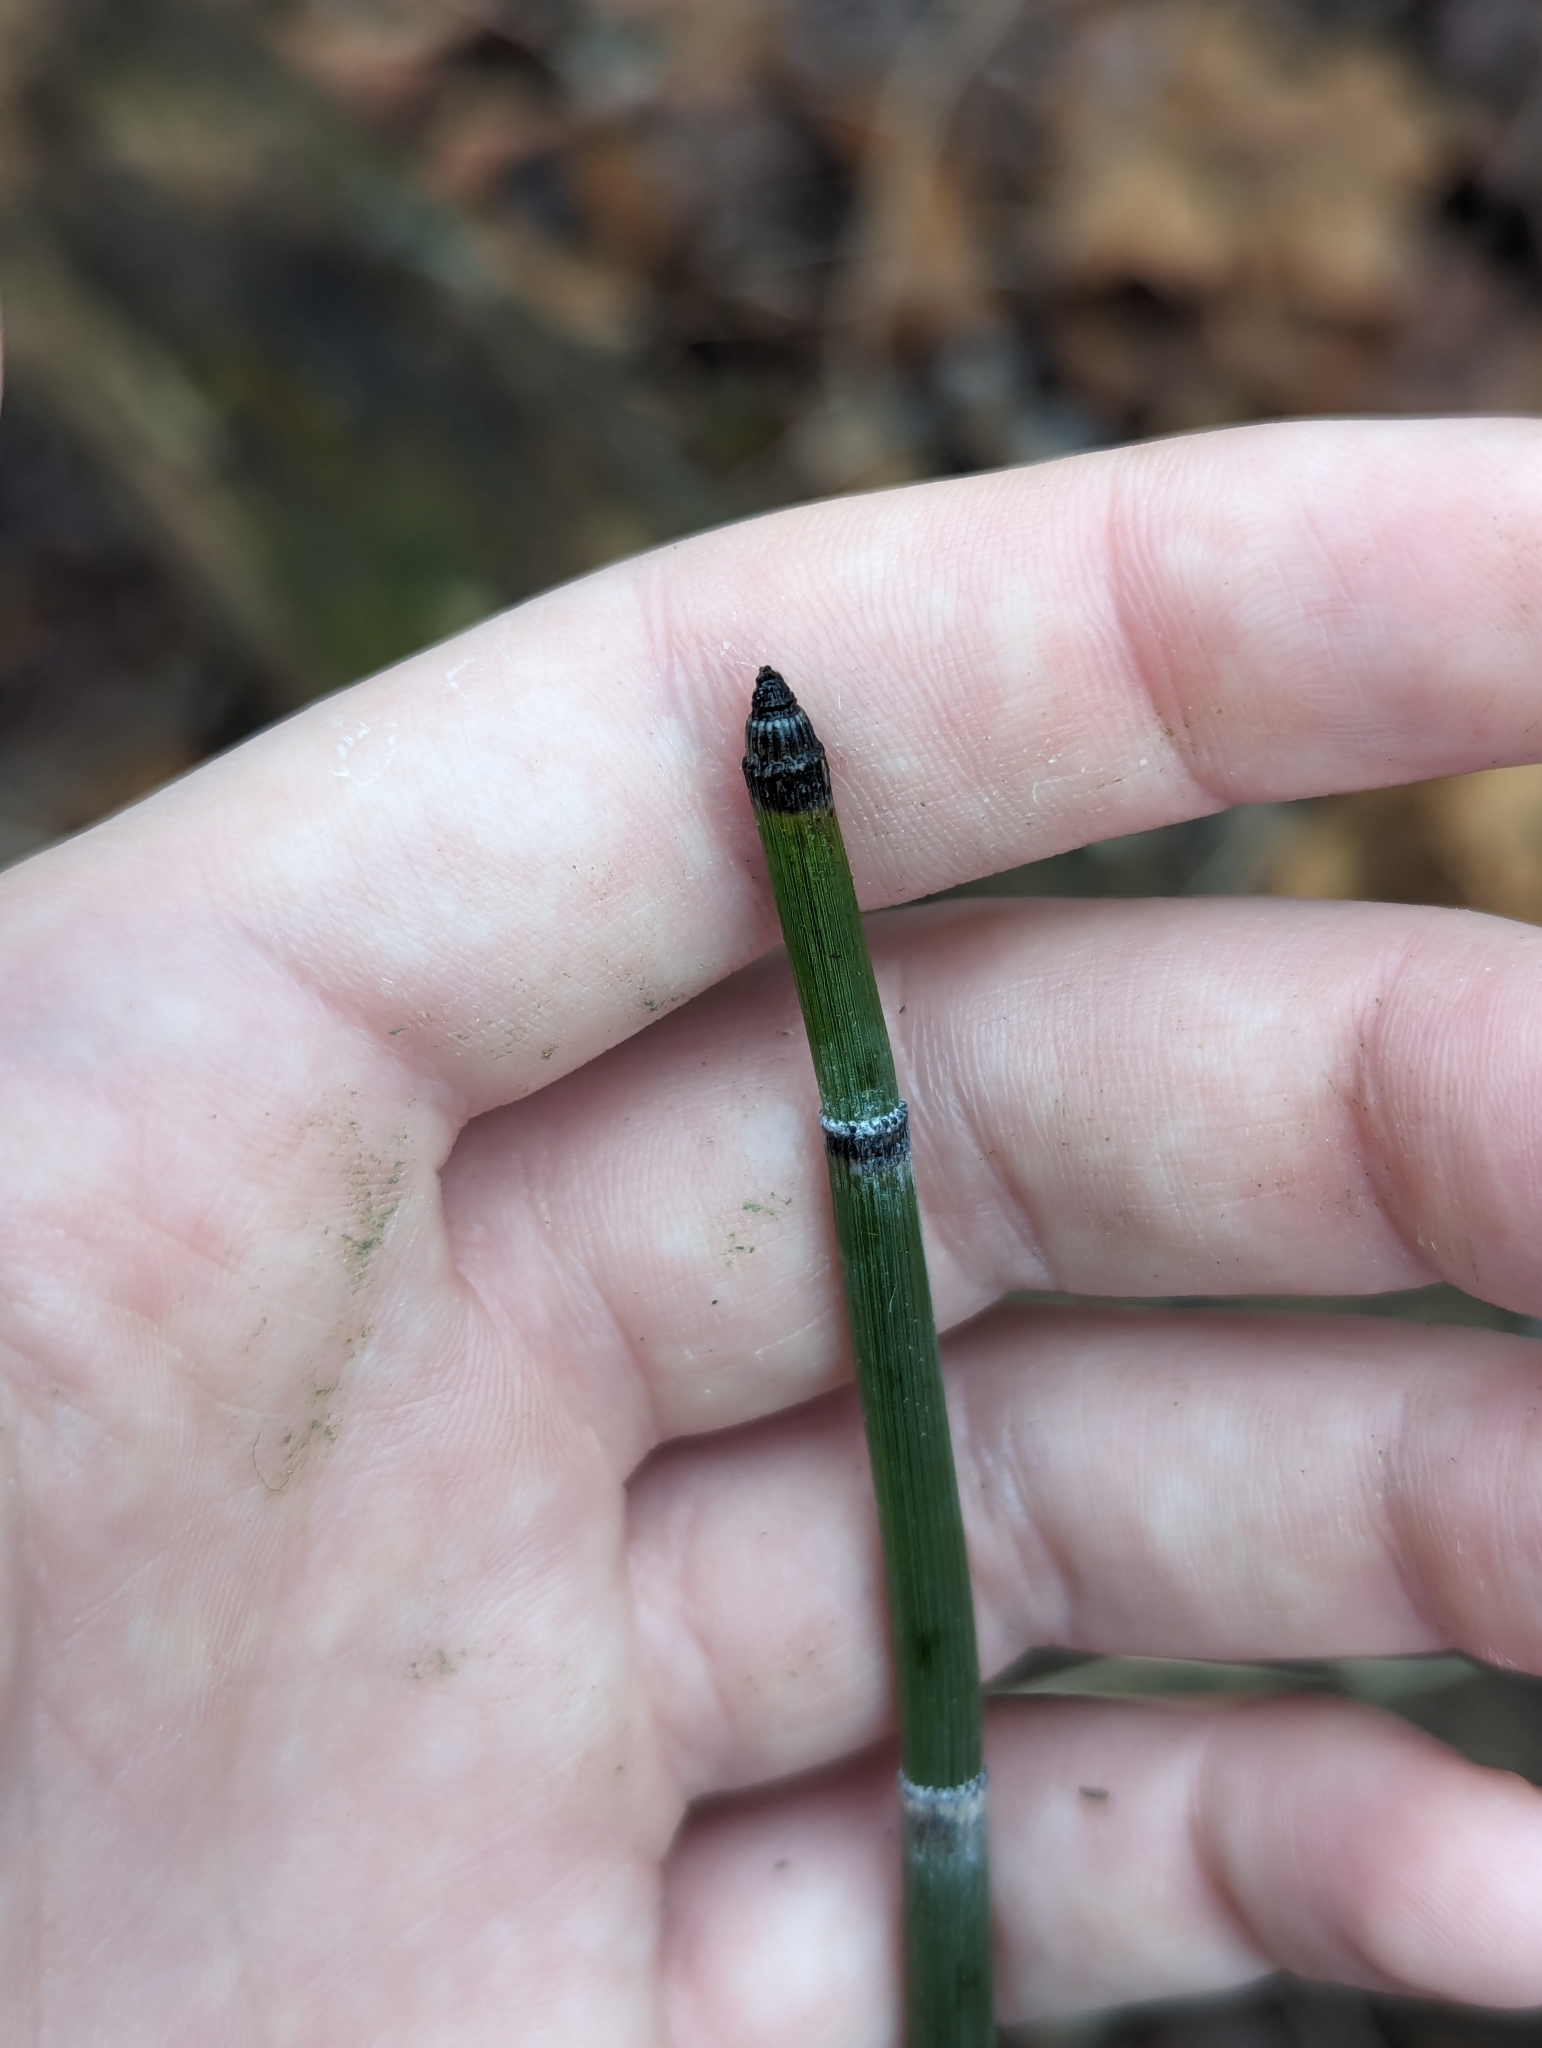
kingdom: Plantae
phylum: Tracheophyta
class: Polypodiopsida
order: Equisetales
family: Equisetaceae
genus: Equisetum
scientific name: Equisetum hyemale
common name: Rough horsetail
